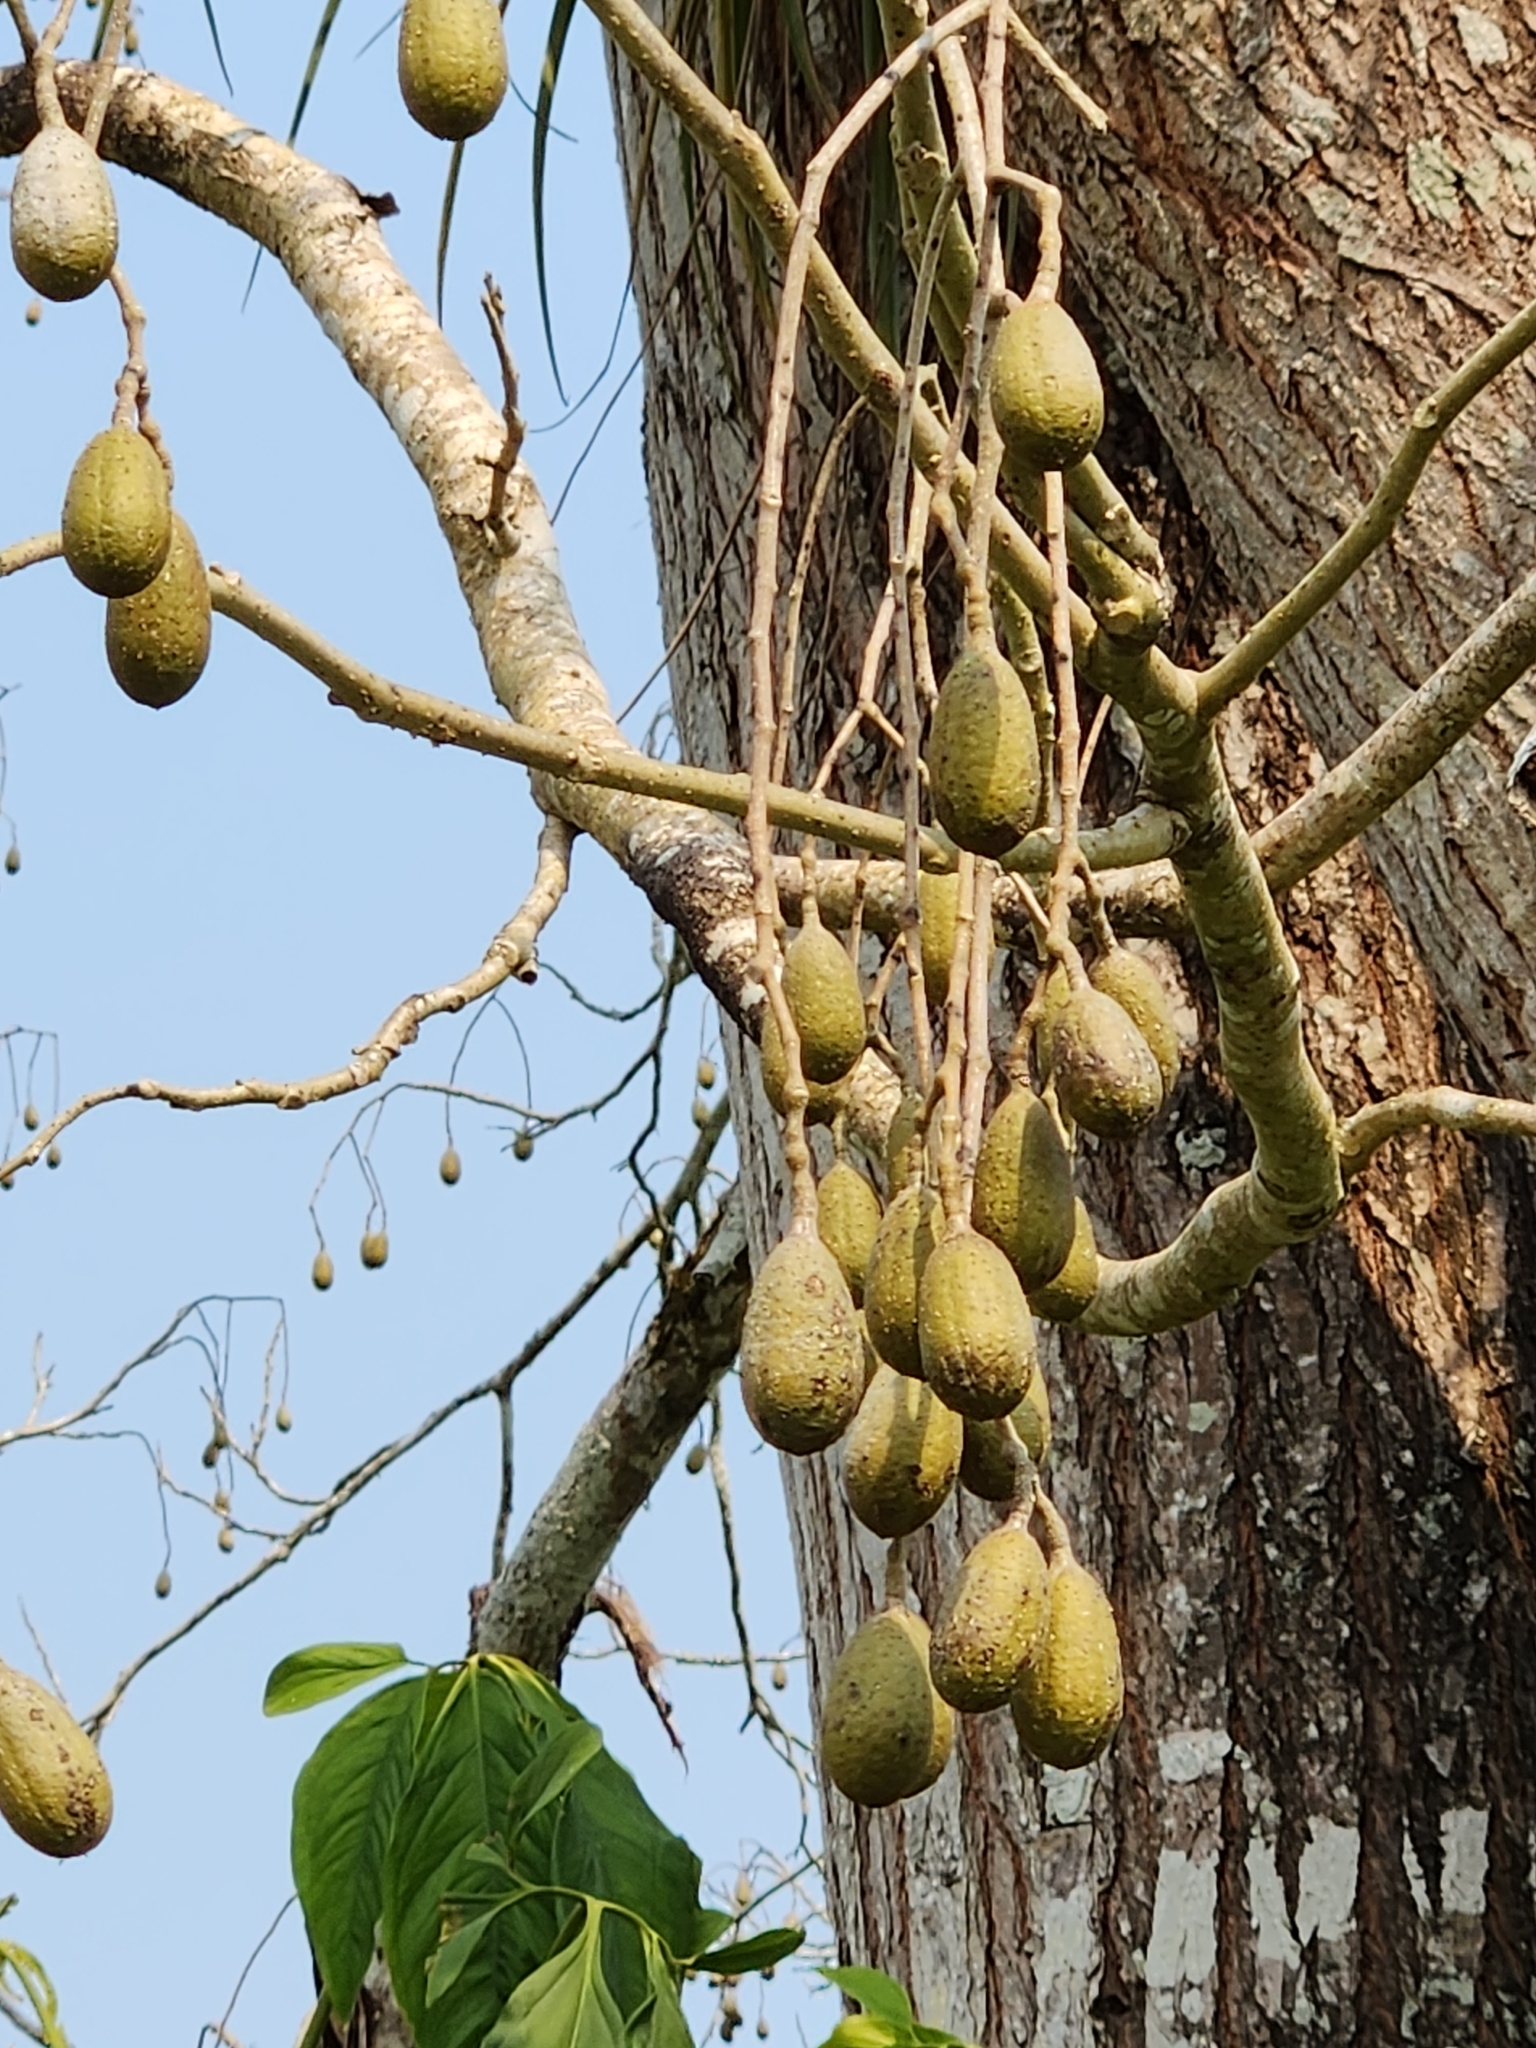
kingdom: Plantae
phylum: Tracheophyta
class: Magnoliopsida
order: Sapindales
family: Meliaceae
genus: Cedrela
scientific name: Cedrela odorata
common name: Red cedar
